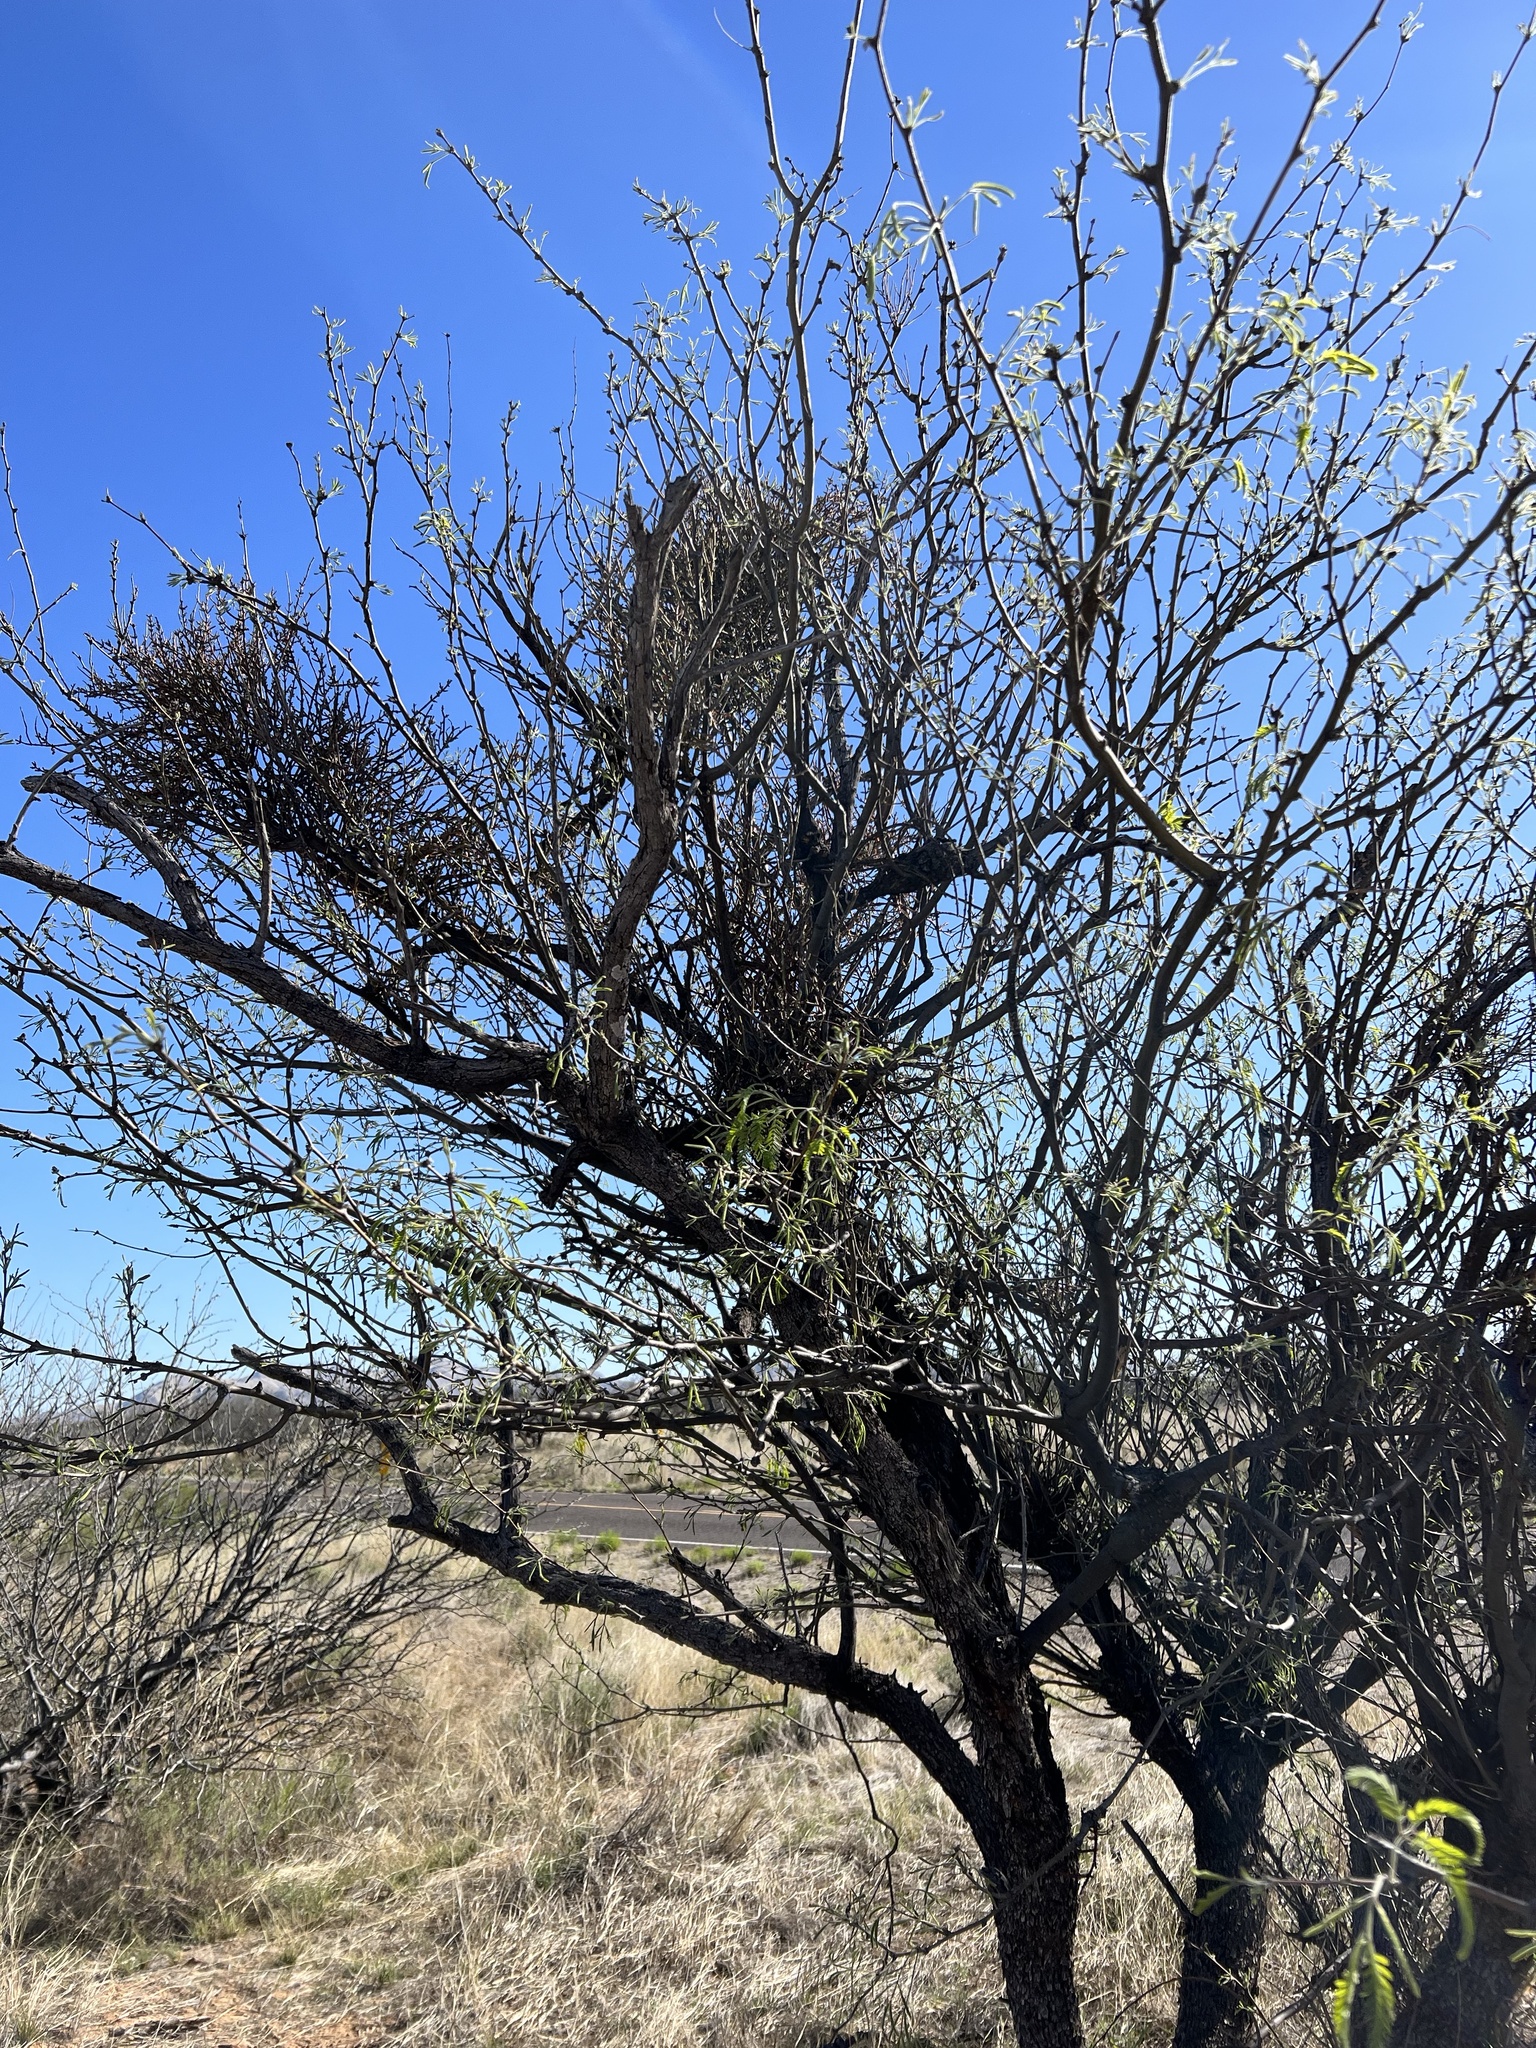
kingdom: Plantae
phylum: Tracheophyta
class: Magnoliopsida
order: Fabales
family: Fabaceae
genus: Prosopis
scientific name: Prosopis velutina
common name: Velvet mesquite
